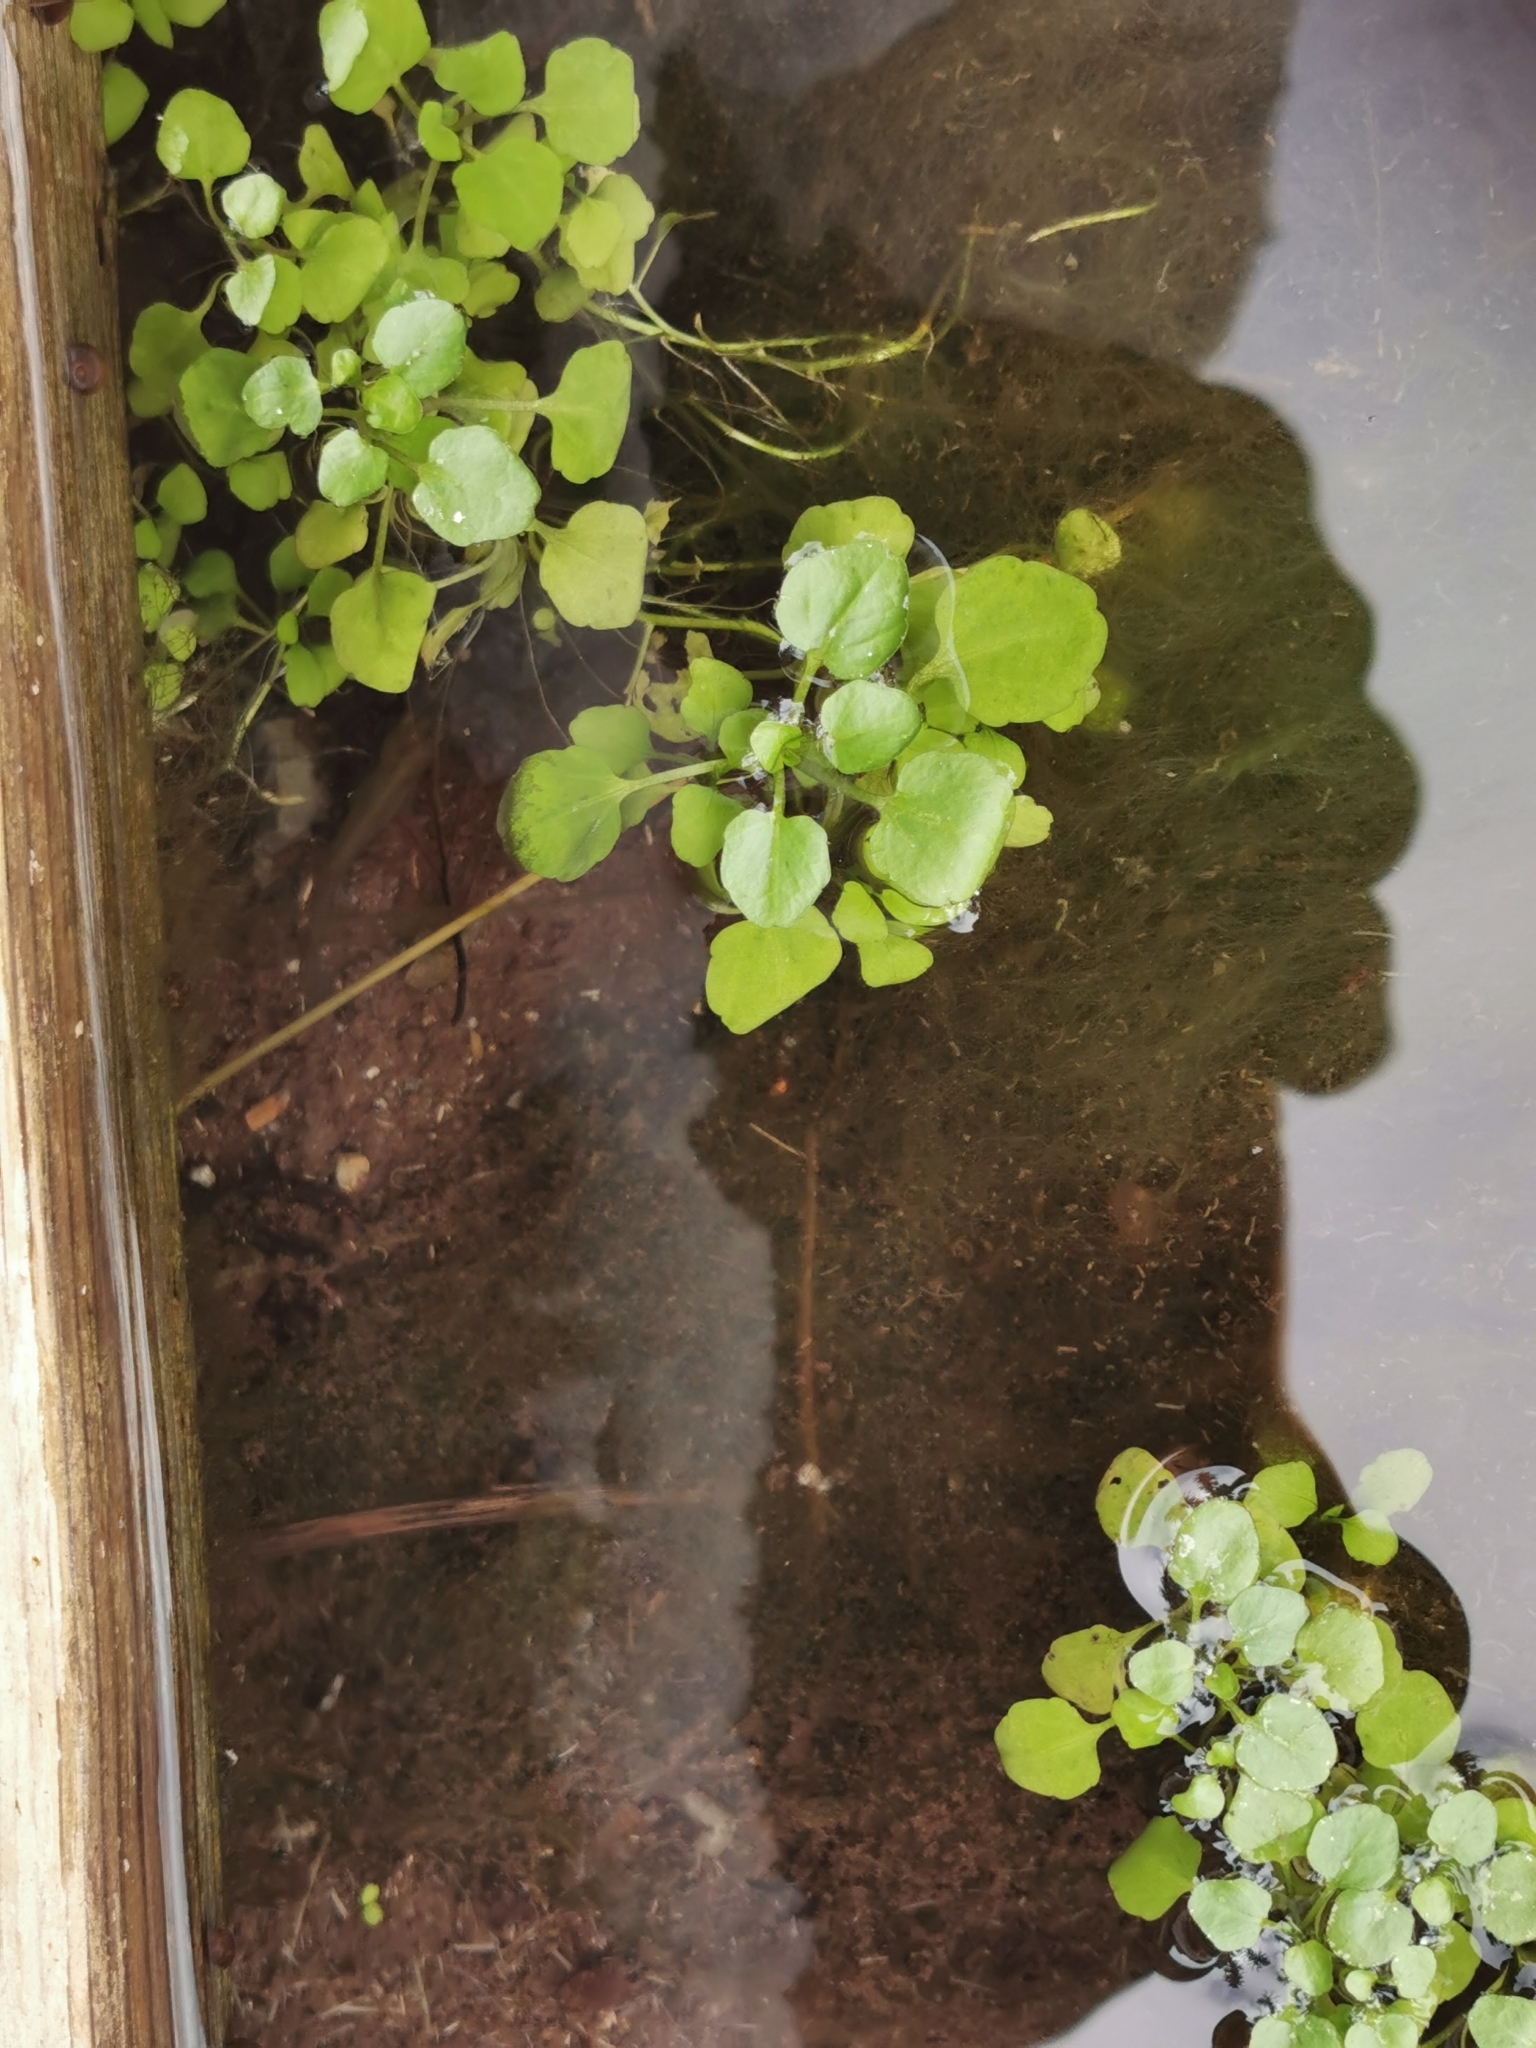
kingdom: Plantae
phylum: Tracheophyta
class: Magnoliopsida
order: Brassicales
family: Brassicaceae
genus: Nasturtium
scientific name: Nasturtium officinale
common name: Watercress
